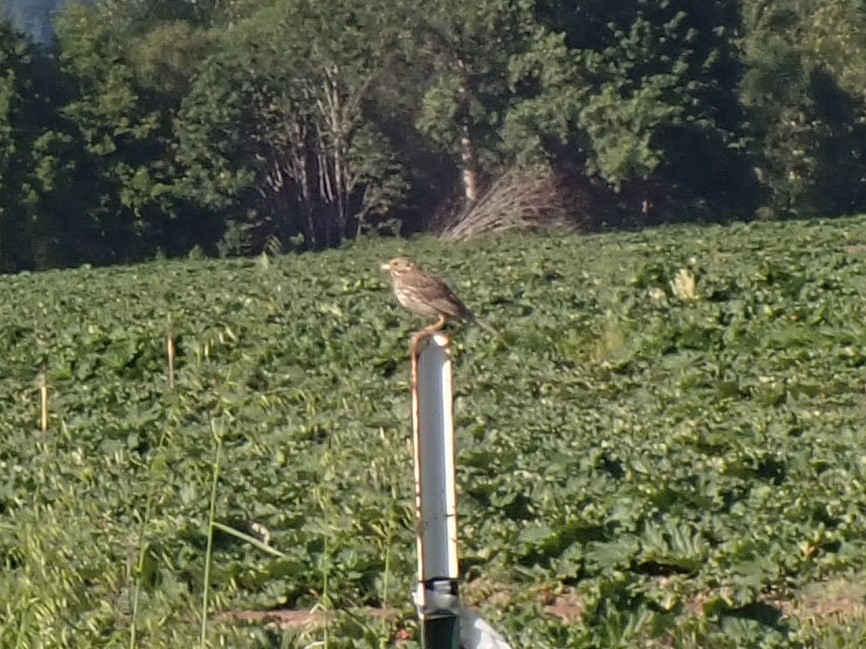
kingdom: Animalia
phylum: Chordata
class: Aves
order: Passeriformes
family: Passerellidae
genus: Passerculus
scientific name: Passerculus sandwichensis
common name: Savannah sparrow
